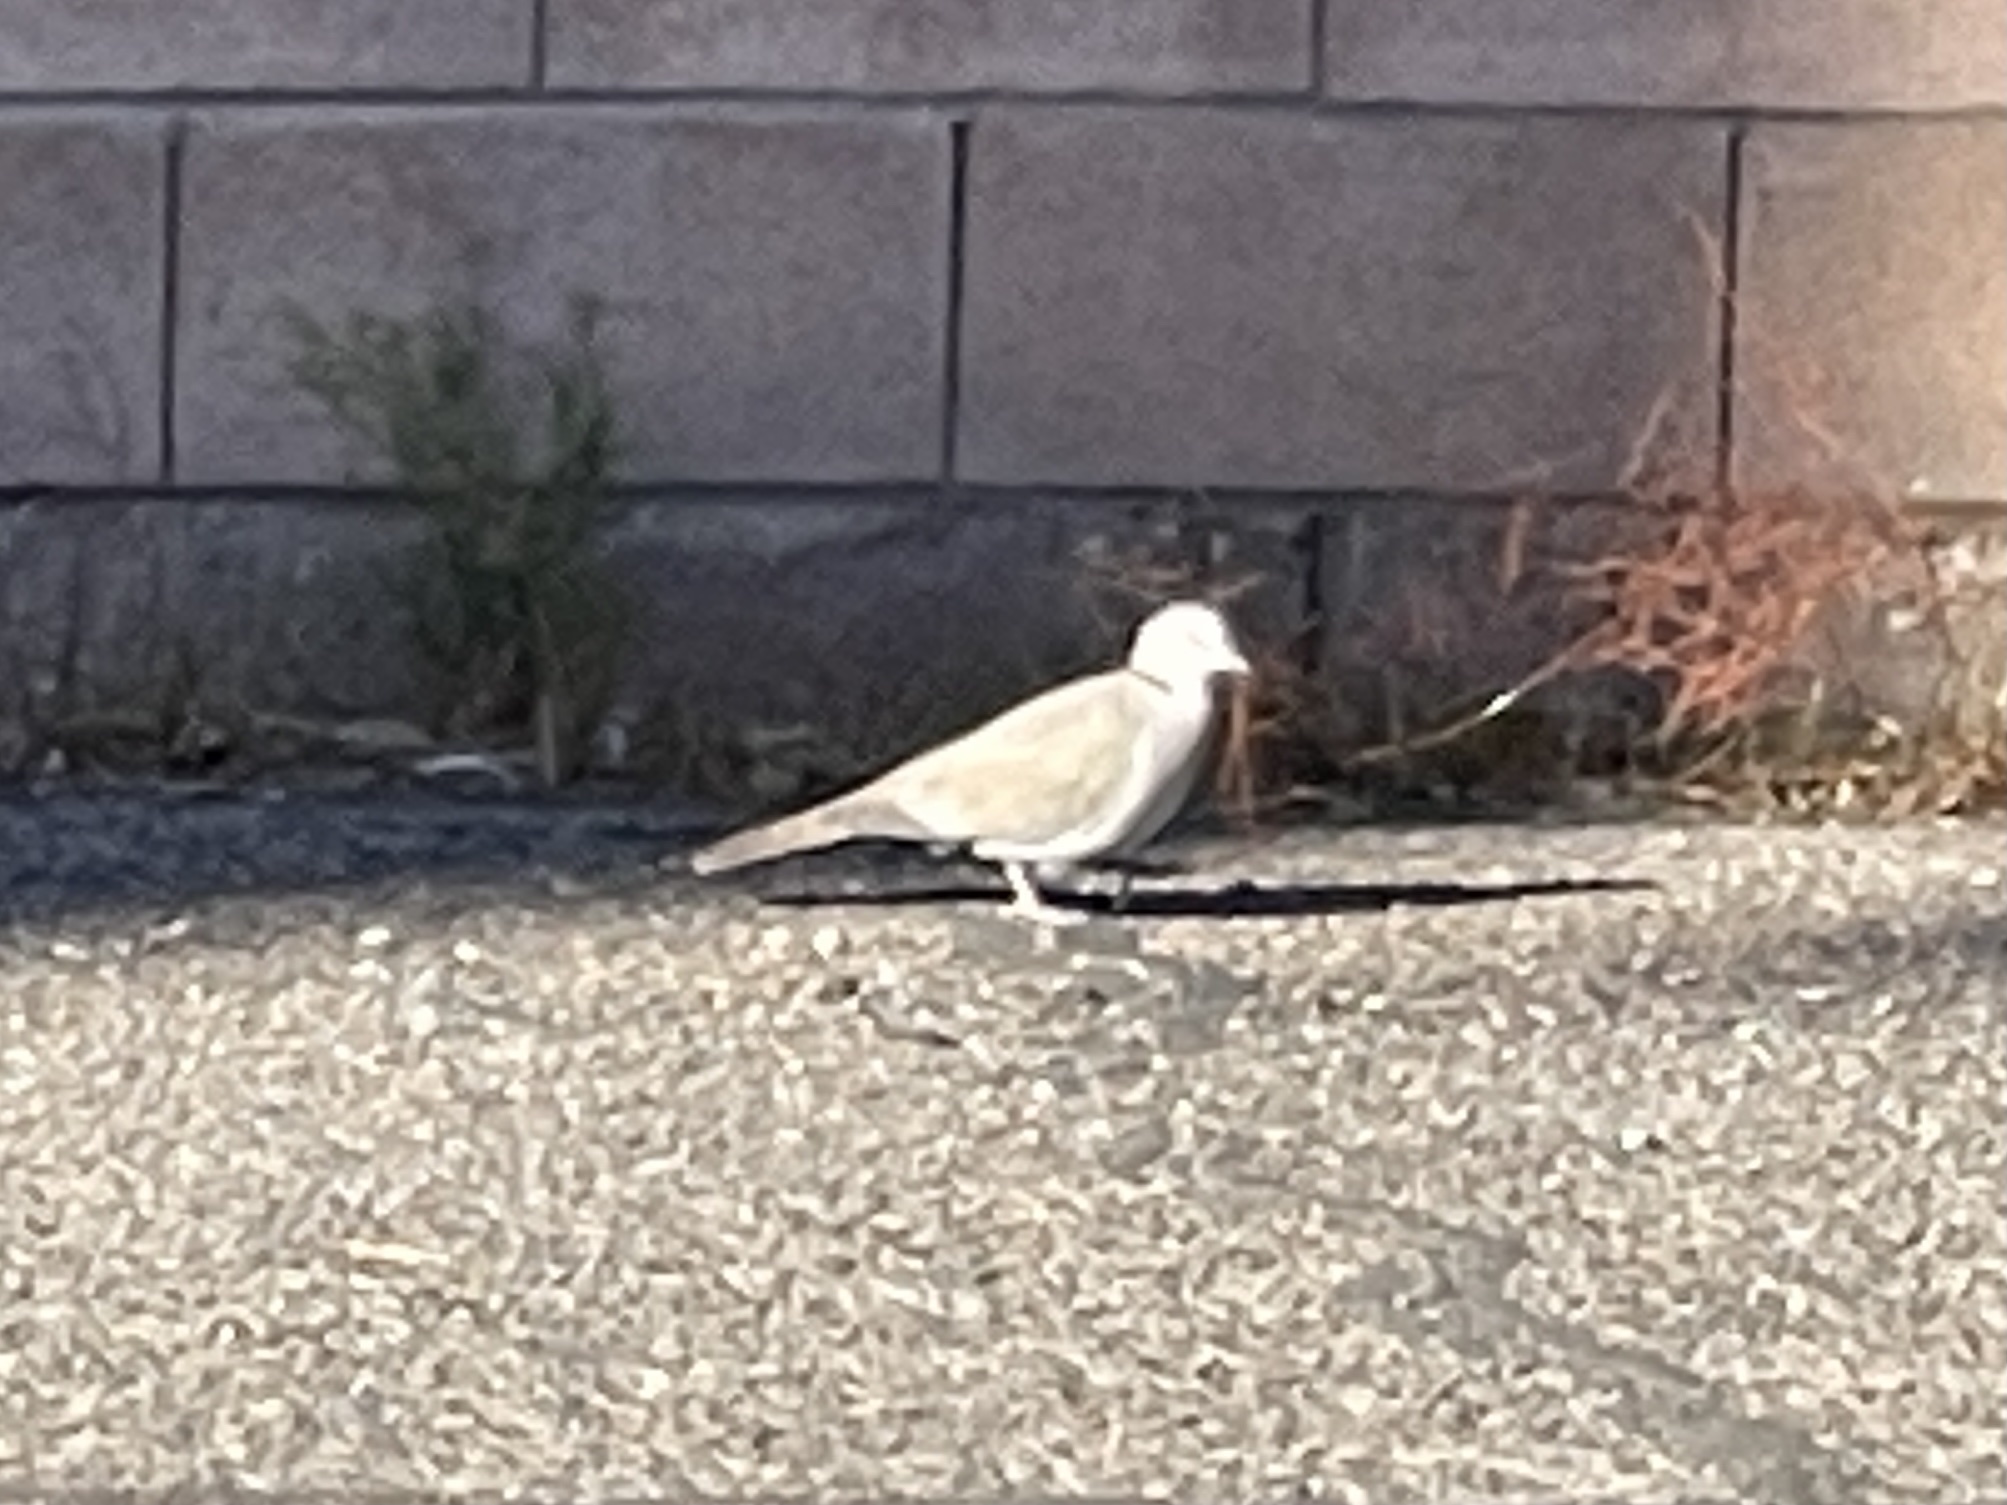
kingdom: Animalia
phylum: Chordata
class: Aves
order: Columbiformes
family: Columbidae
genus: Streptopelia
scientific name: Streptopelia decaocto
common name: Eurasian collared dove
